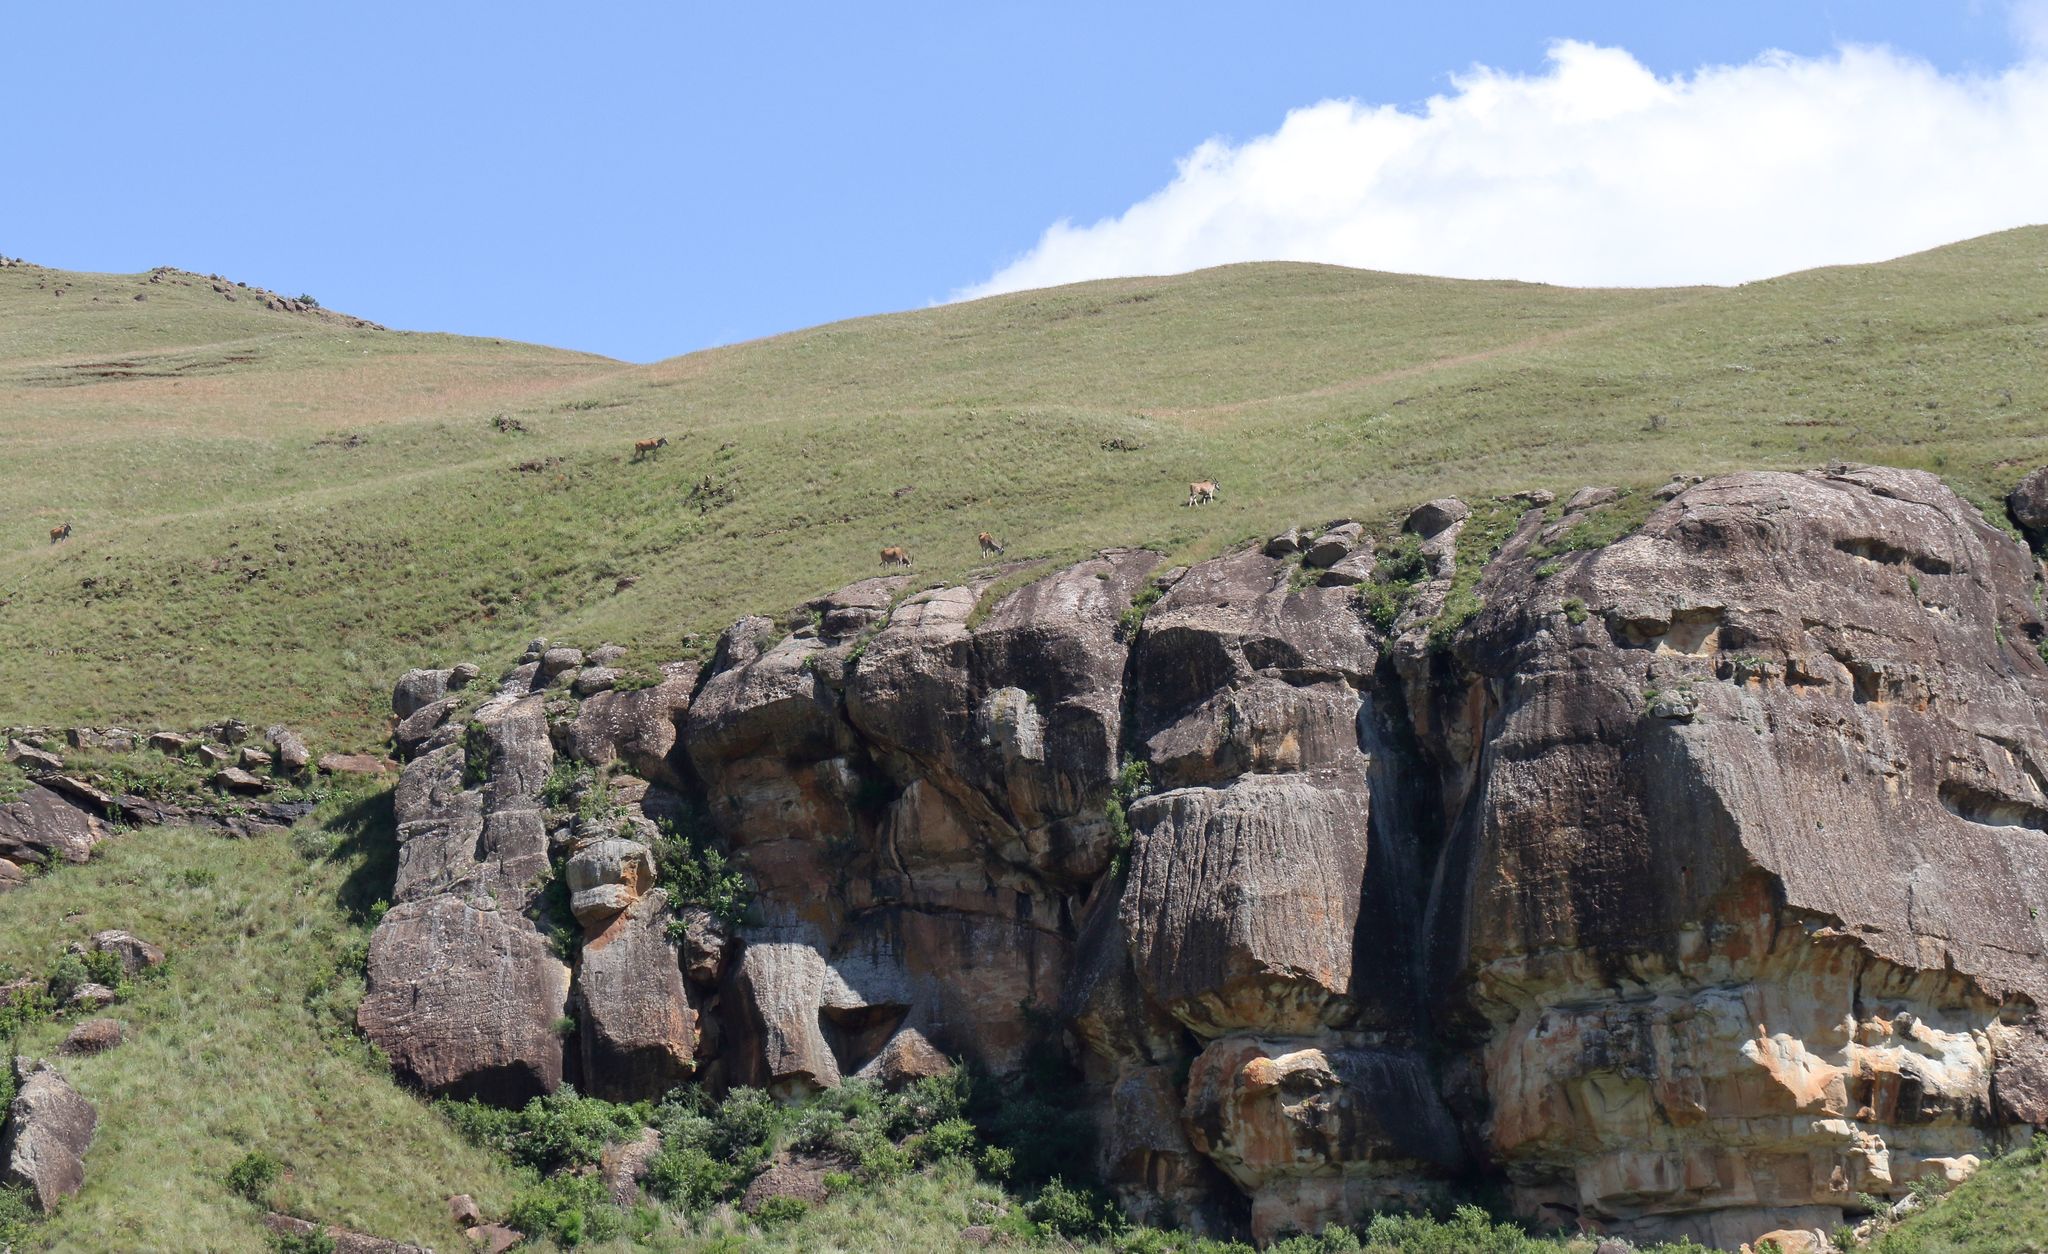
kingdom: Animalia
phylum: Chordata
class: Mammalia
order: Artiodactyla
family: Bovidae
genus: Taurotragus
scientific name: Taurotragus oryx
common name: Common eland
